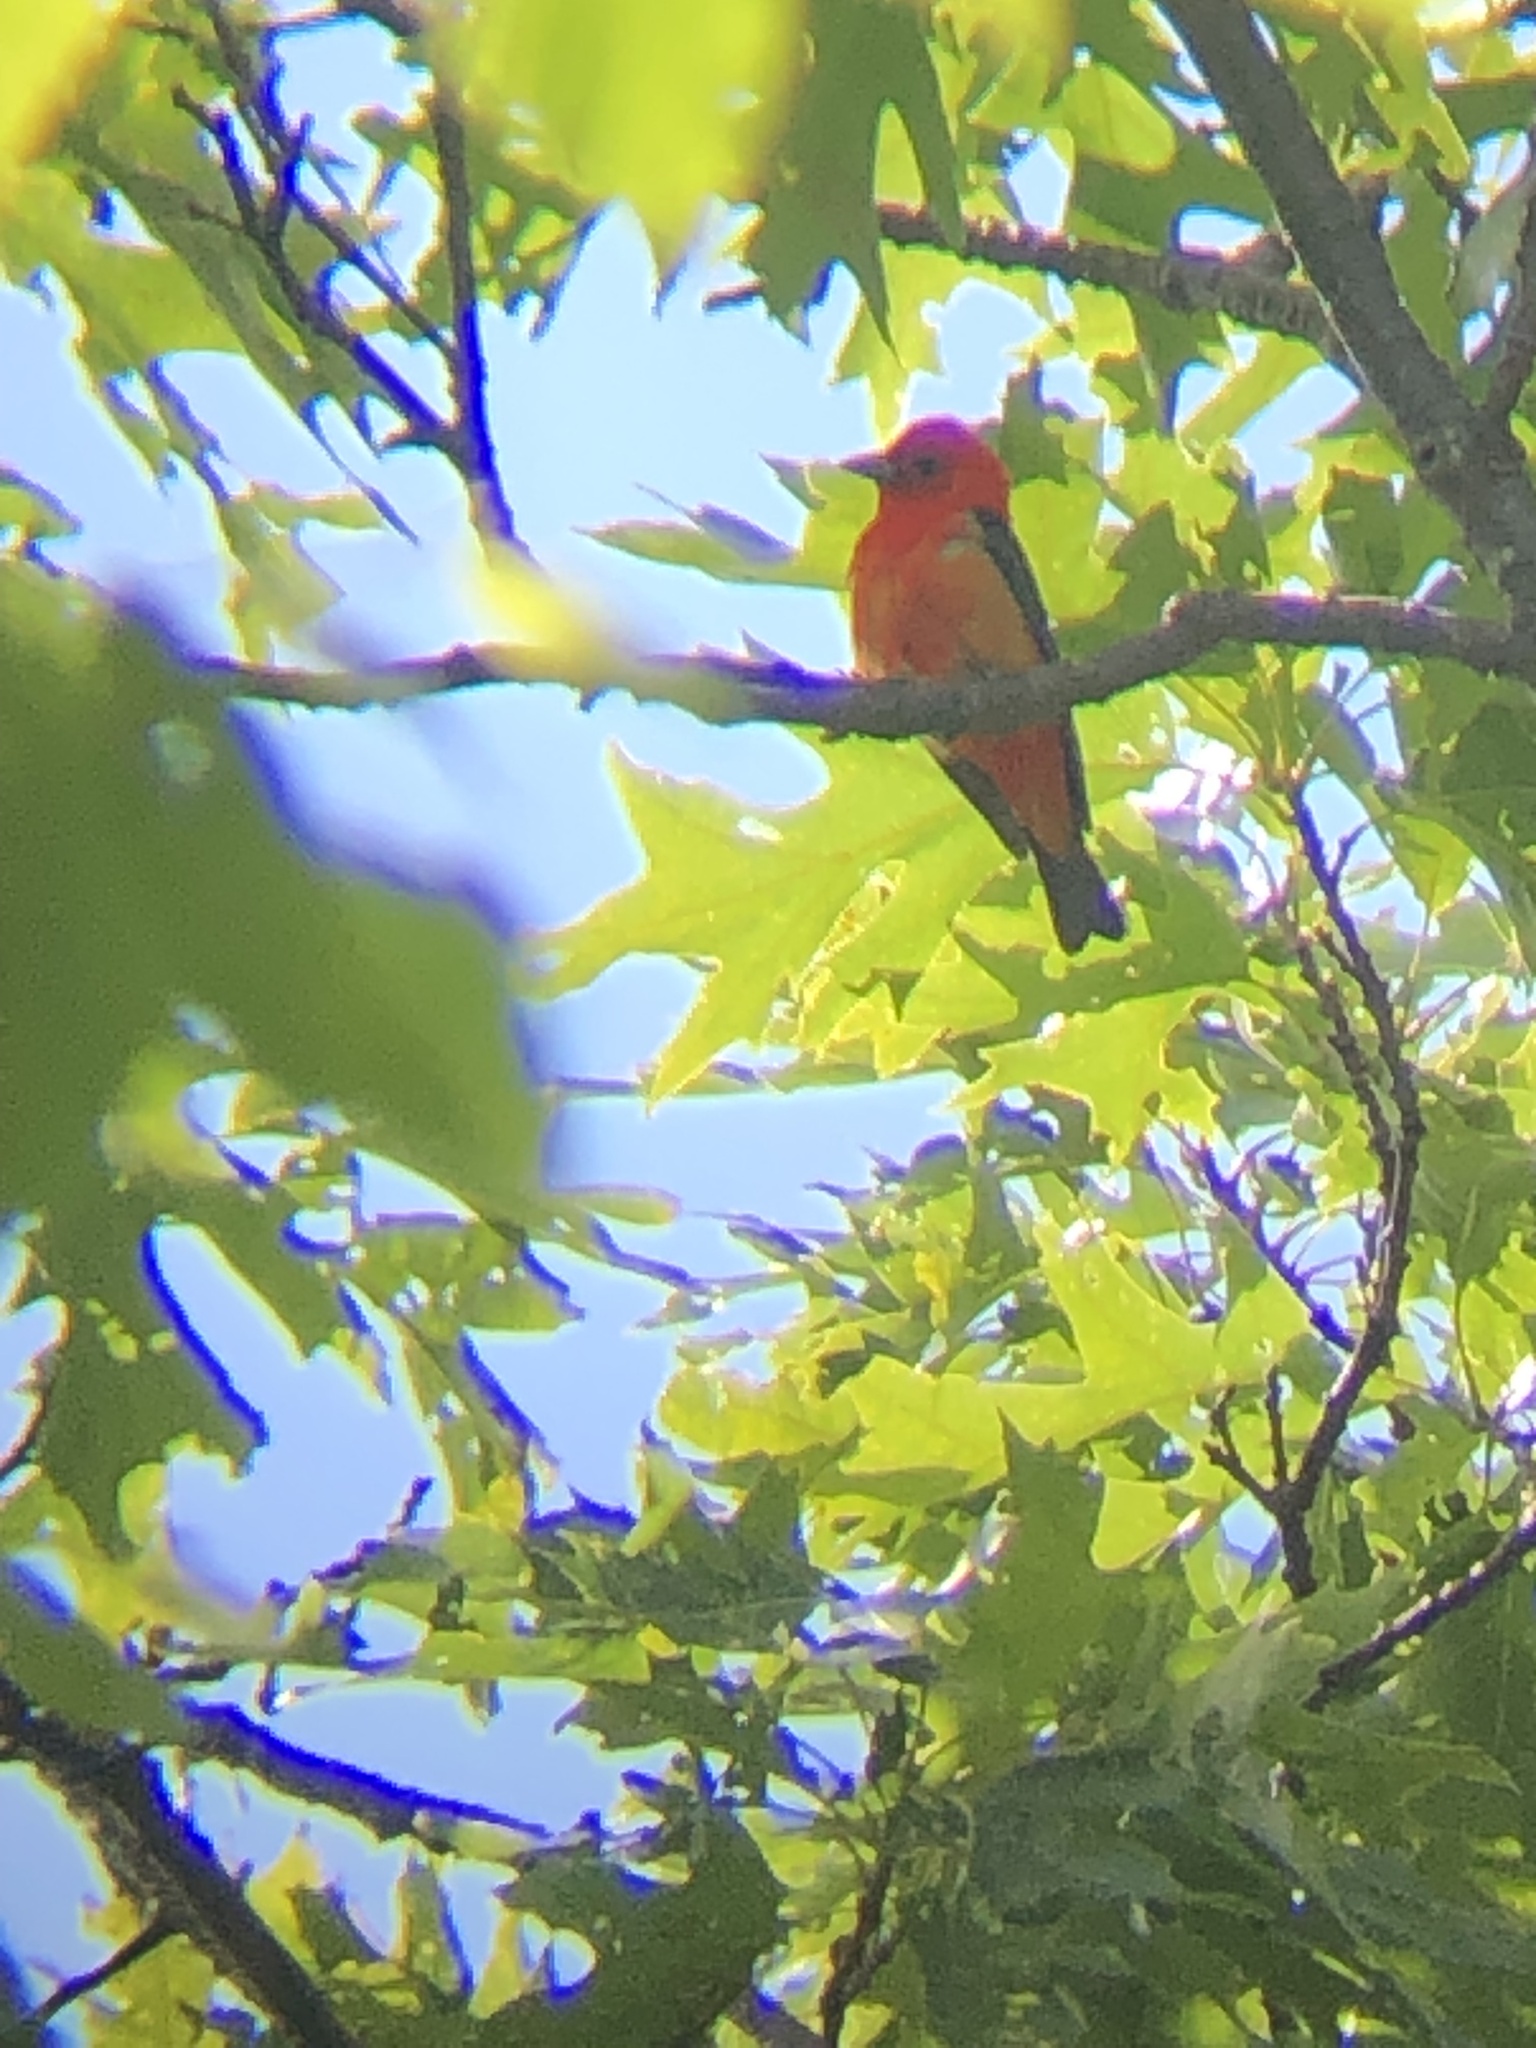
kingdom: Animalia
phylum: Chordata
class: Aves
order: Passeriformes
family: Cardinalidae
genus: Piranga
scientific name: Piranga olivacea
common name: Scarlet tanager
